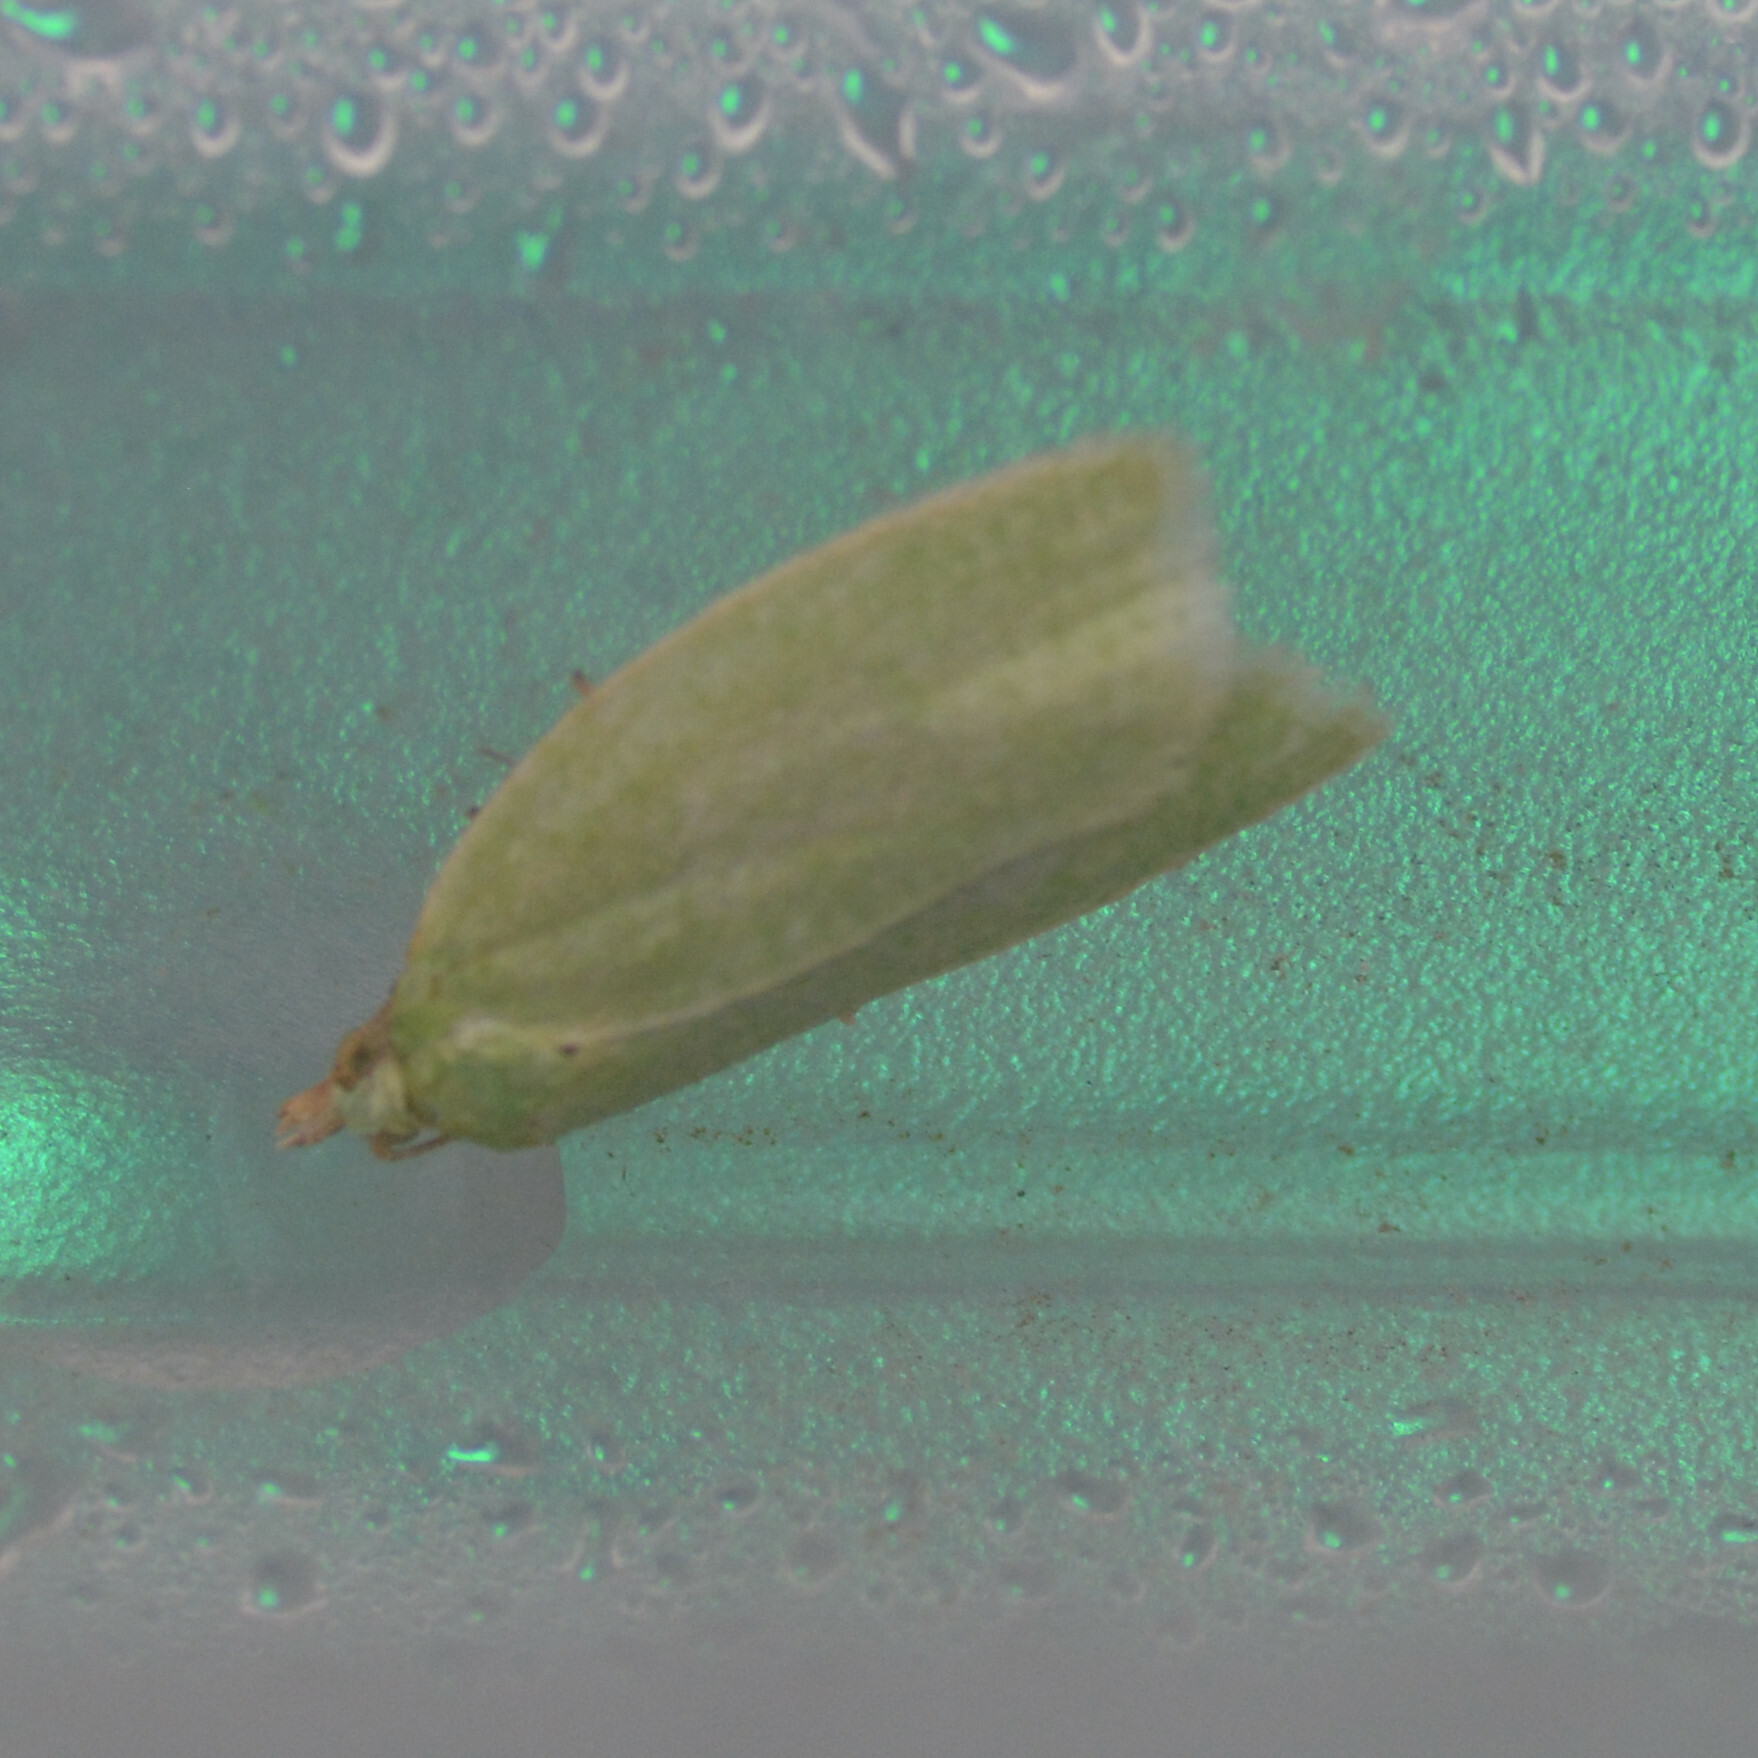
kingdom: Animalia
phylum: Arthropoda
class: Insecta
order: Lepidoptera
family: Tortricidae
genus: Tortrix
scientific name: Tortrix viridana
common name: Green oak tortrix
